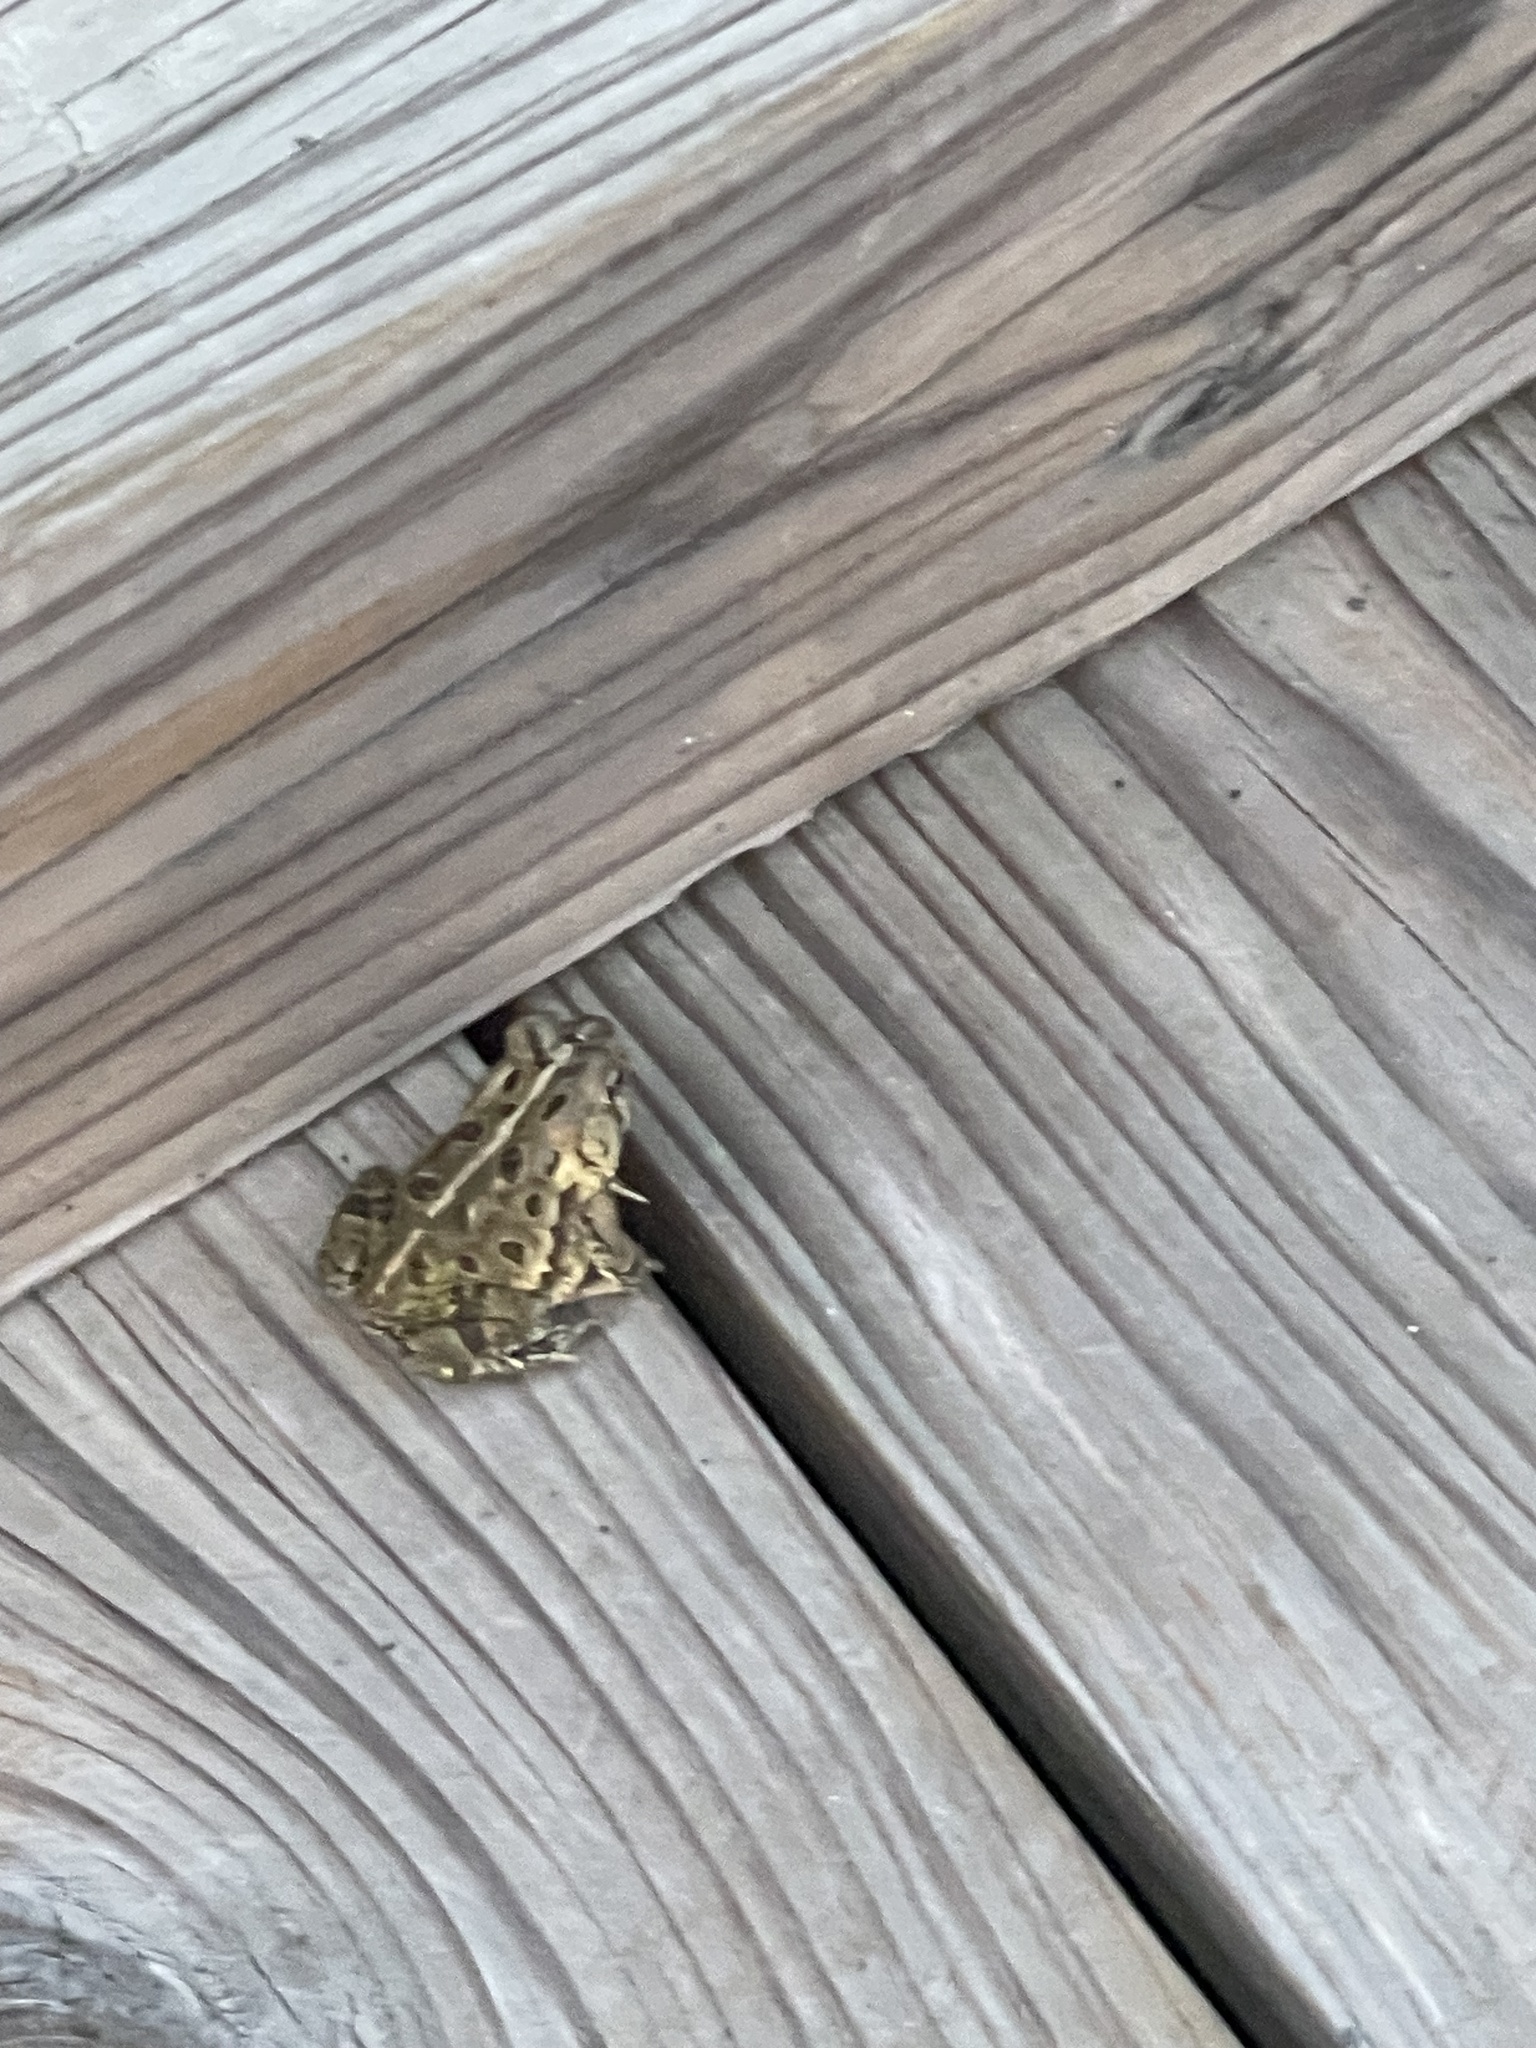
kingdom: Animalia
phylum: Chordata
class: Amphibia
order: Anura
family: Bufonidae
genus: Anaxyrus
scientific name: Anaxyrus fowleri
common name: Fowler's toad
